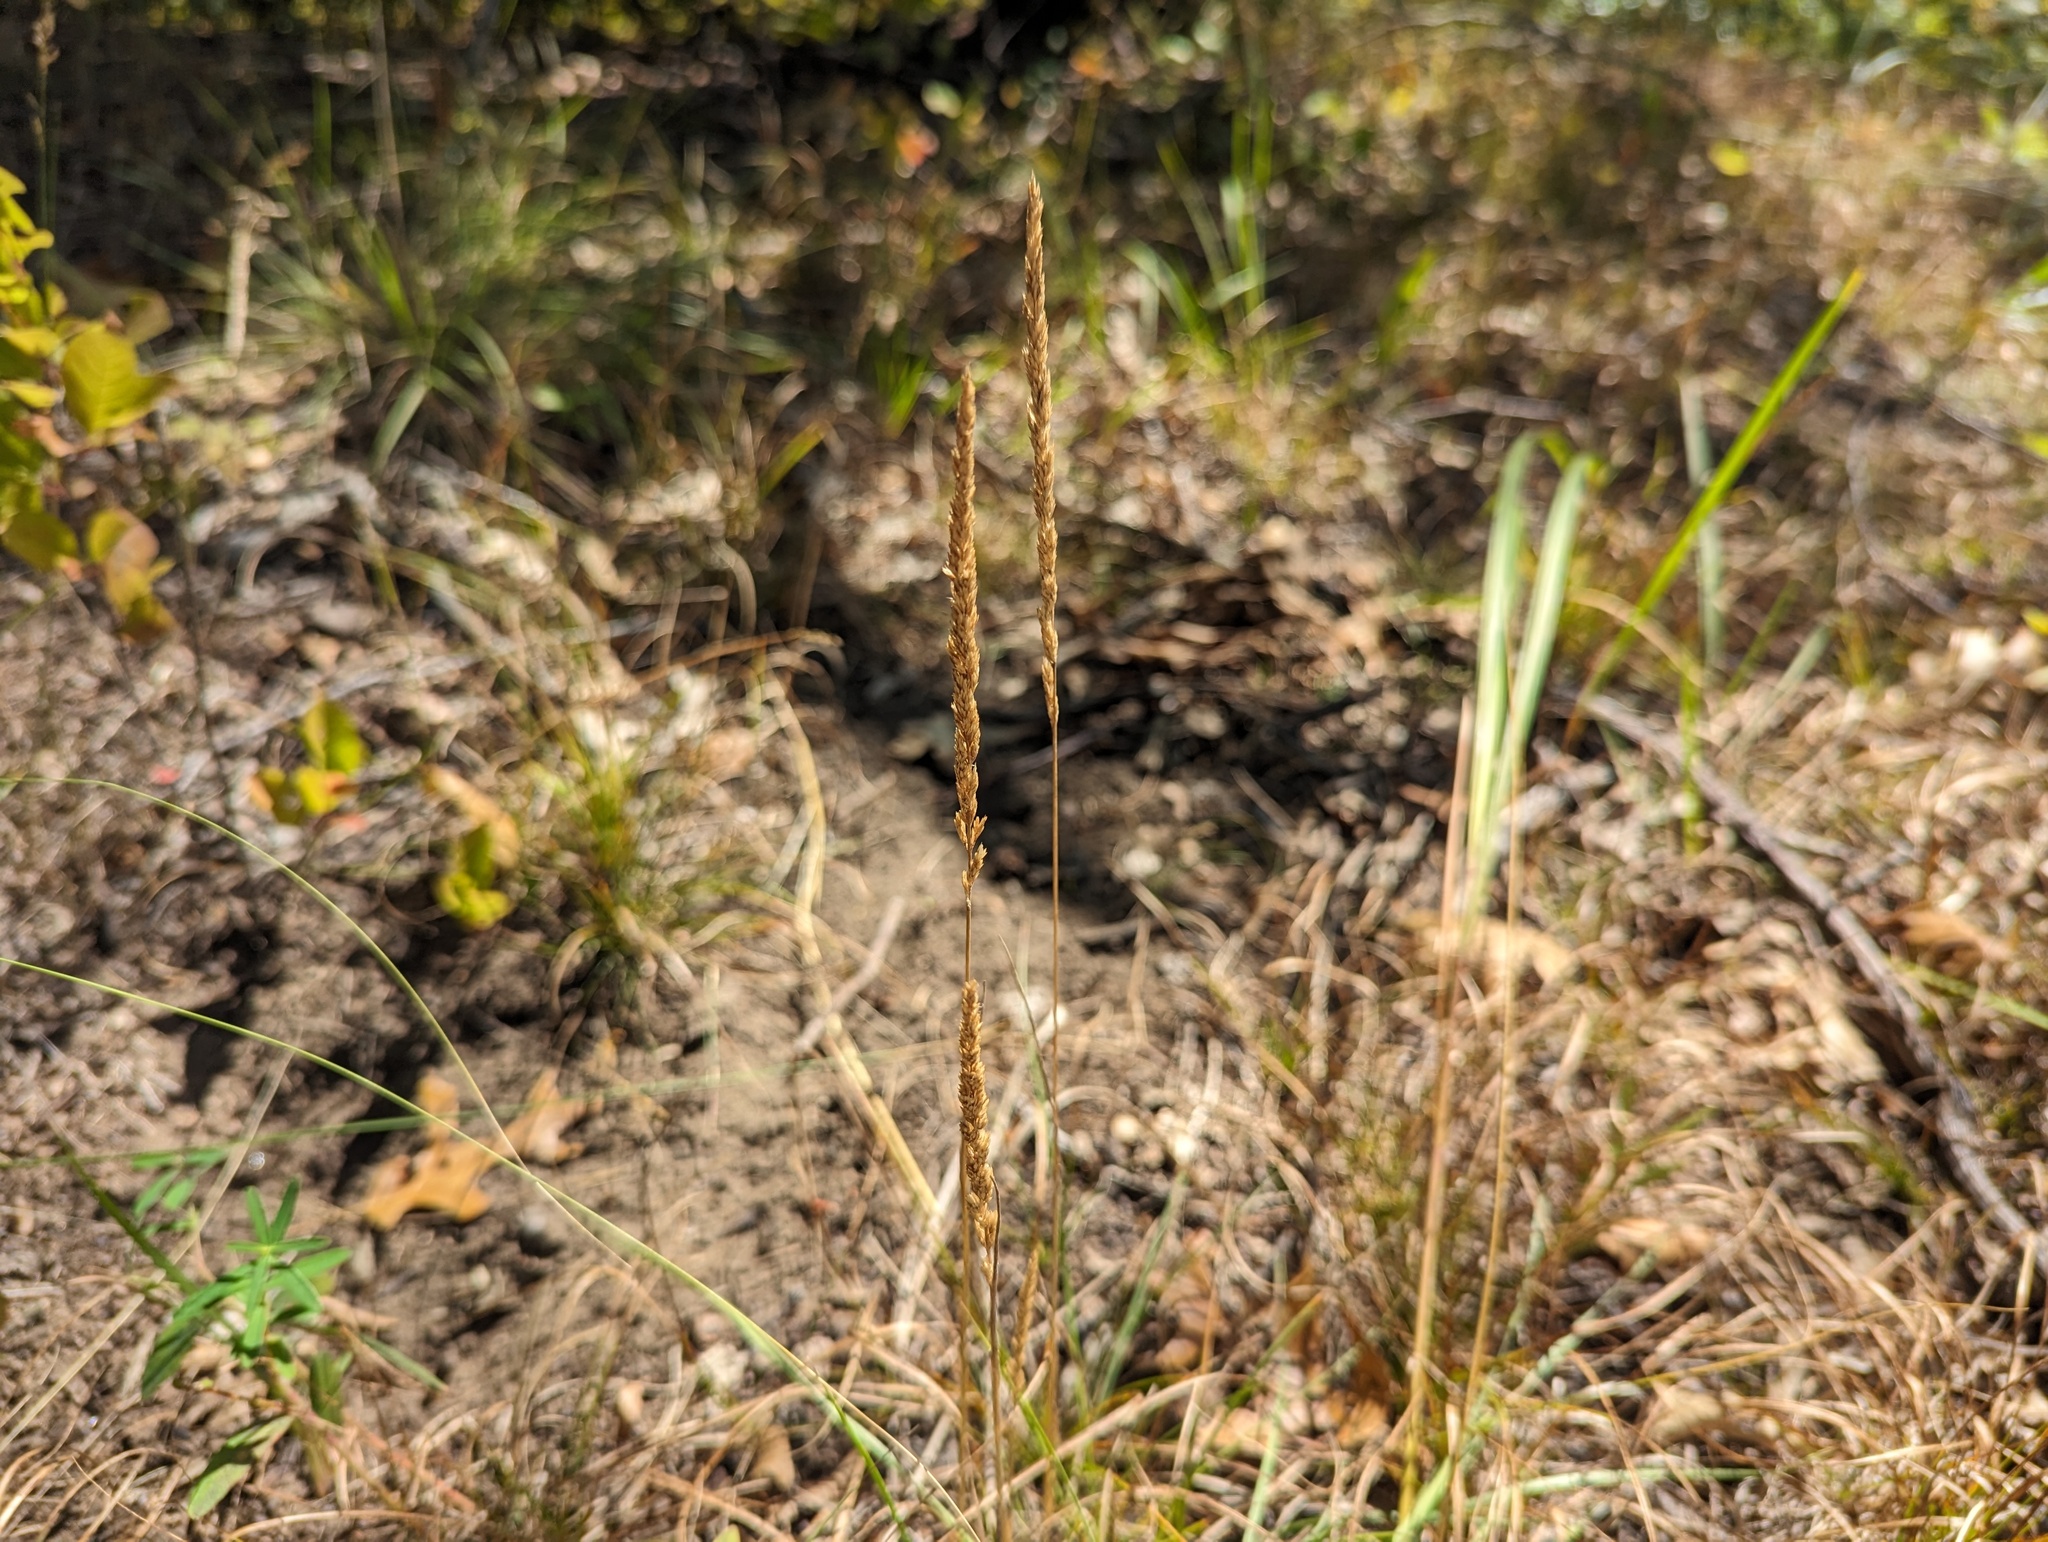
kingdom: Plantae
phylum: Tracheophyta
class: Liliopsida
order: Poales
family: Poaceae
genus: Koeleria
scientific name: Koeleria macrantha
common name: Crested hair-grass
